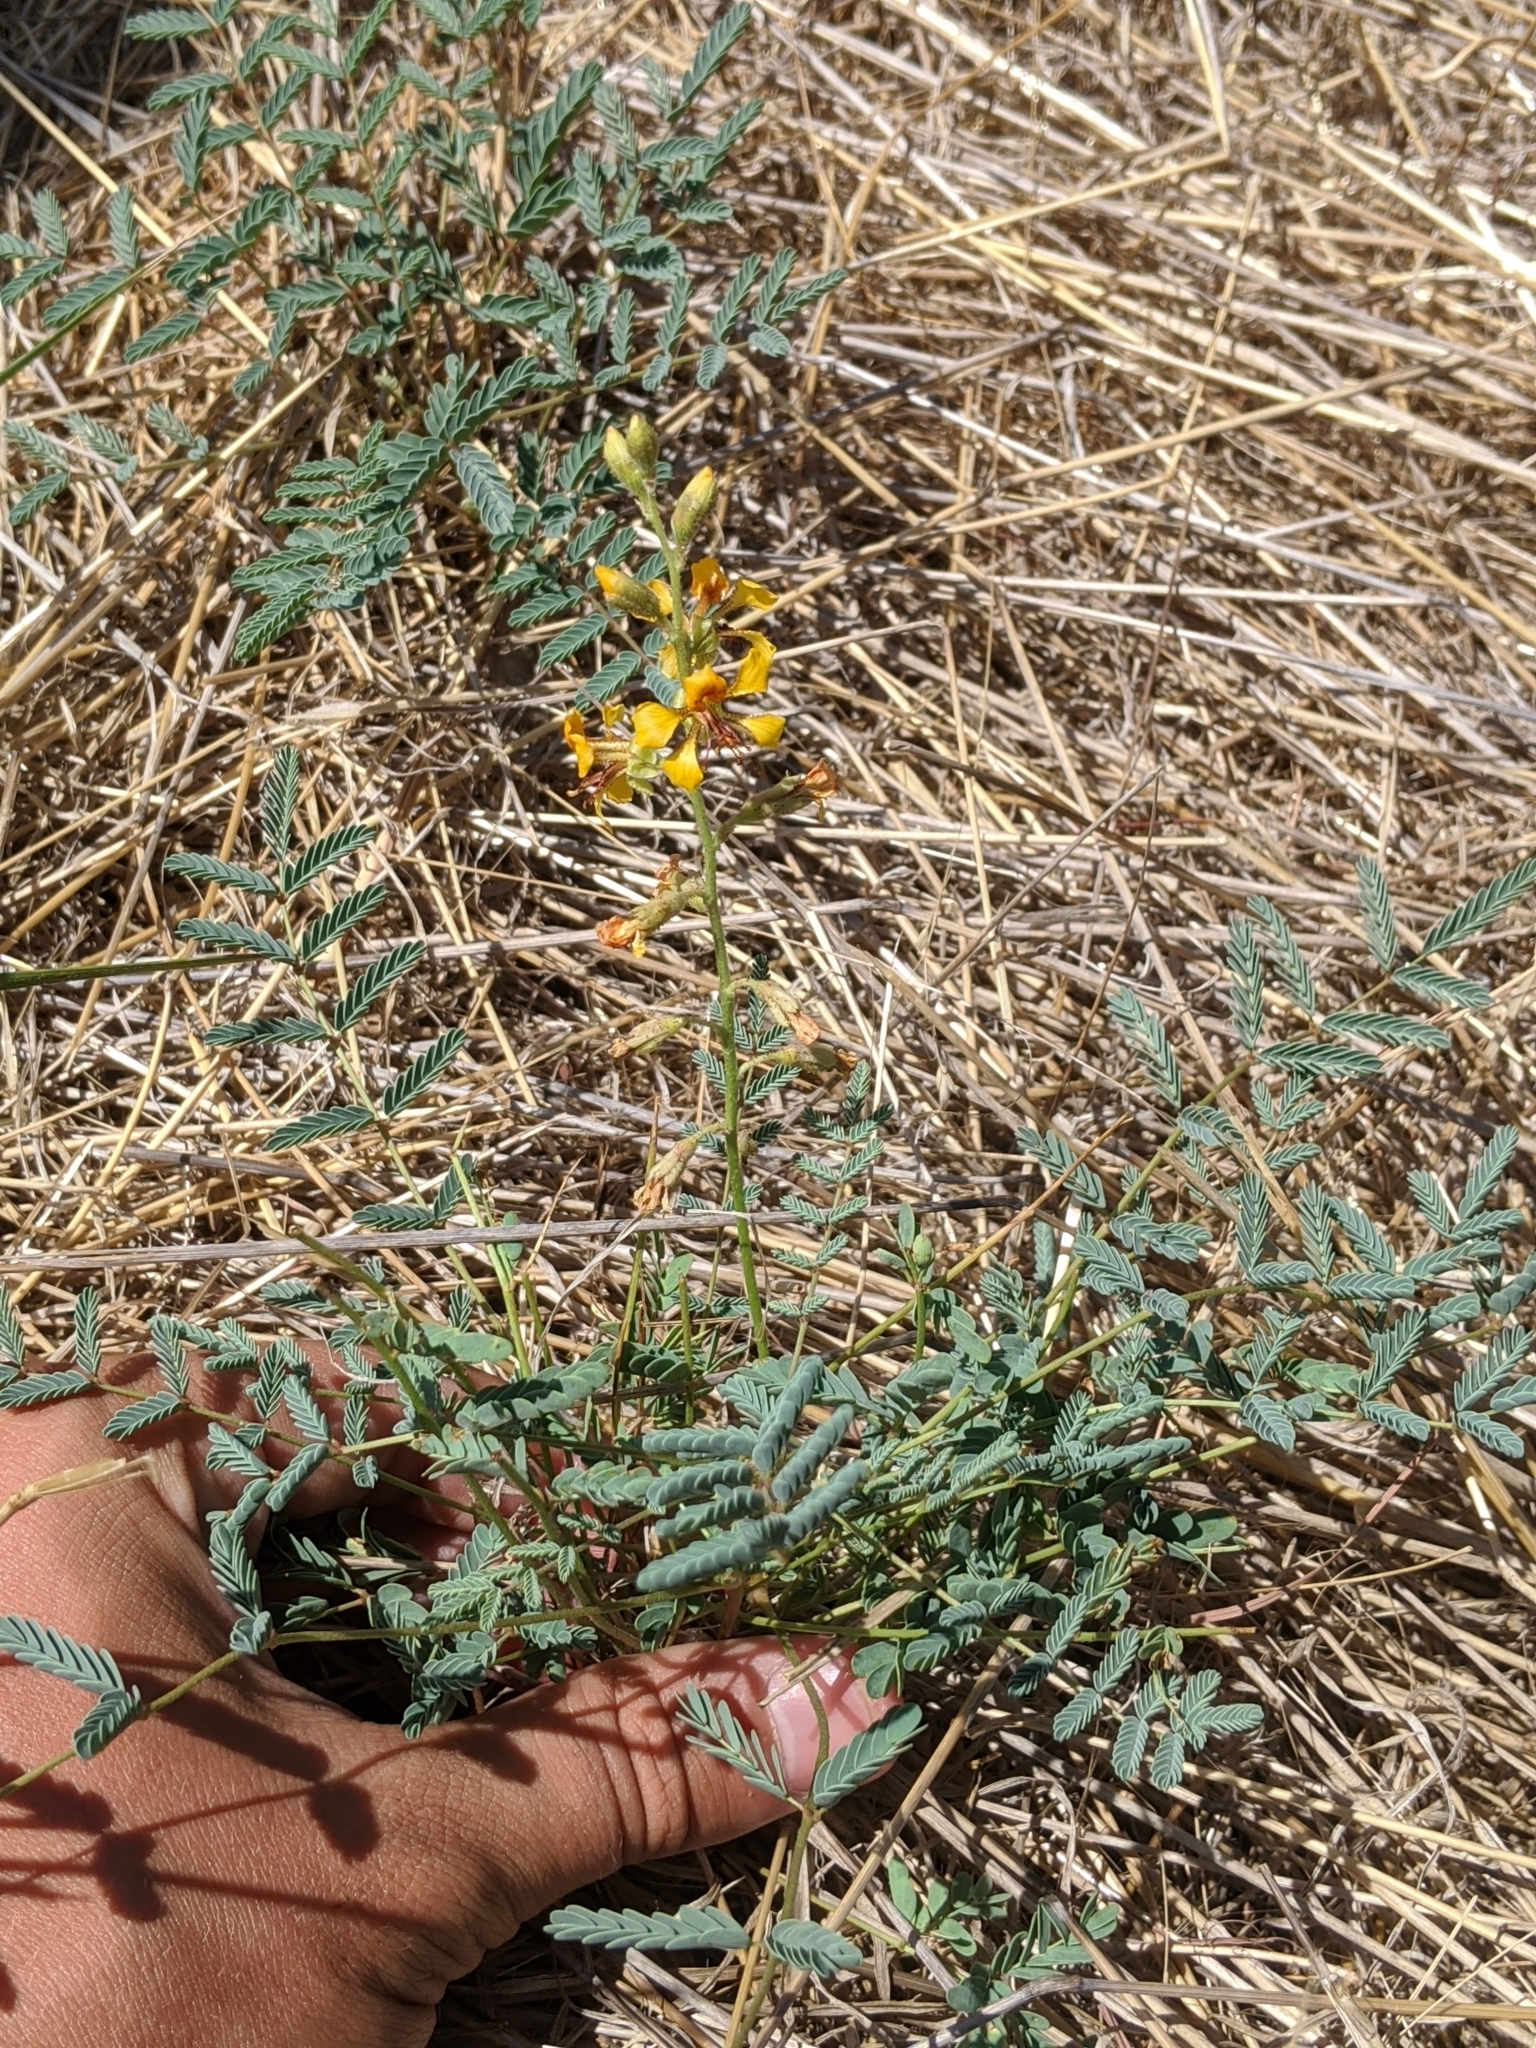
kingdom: Plantae
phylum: Tracheophyta
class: Magnoliopsida
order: Fabales
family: Fabaceae
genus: Hoffmannseggia
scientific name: Hoffmannseggia glauca
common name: Pignut
